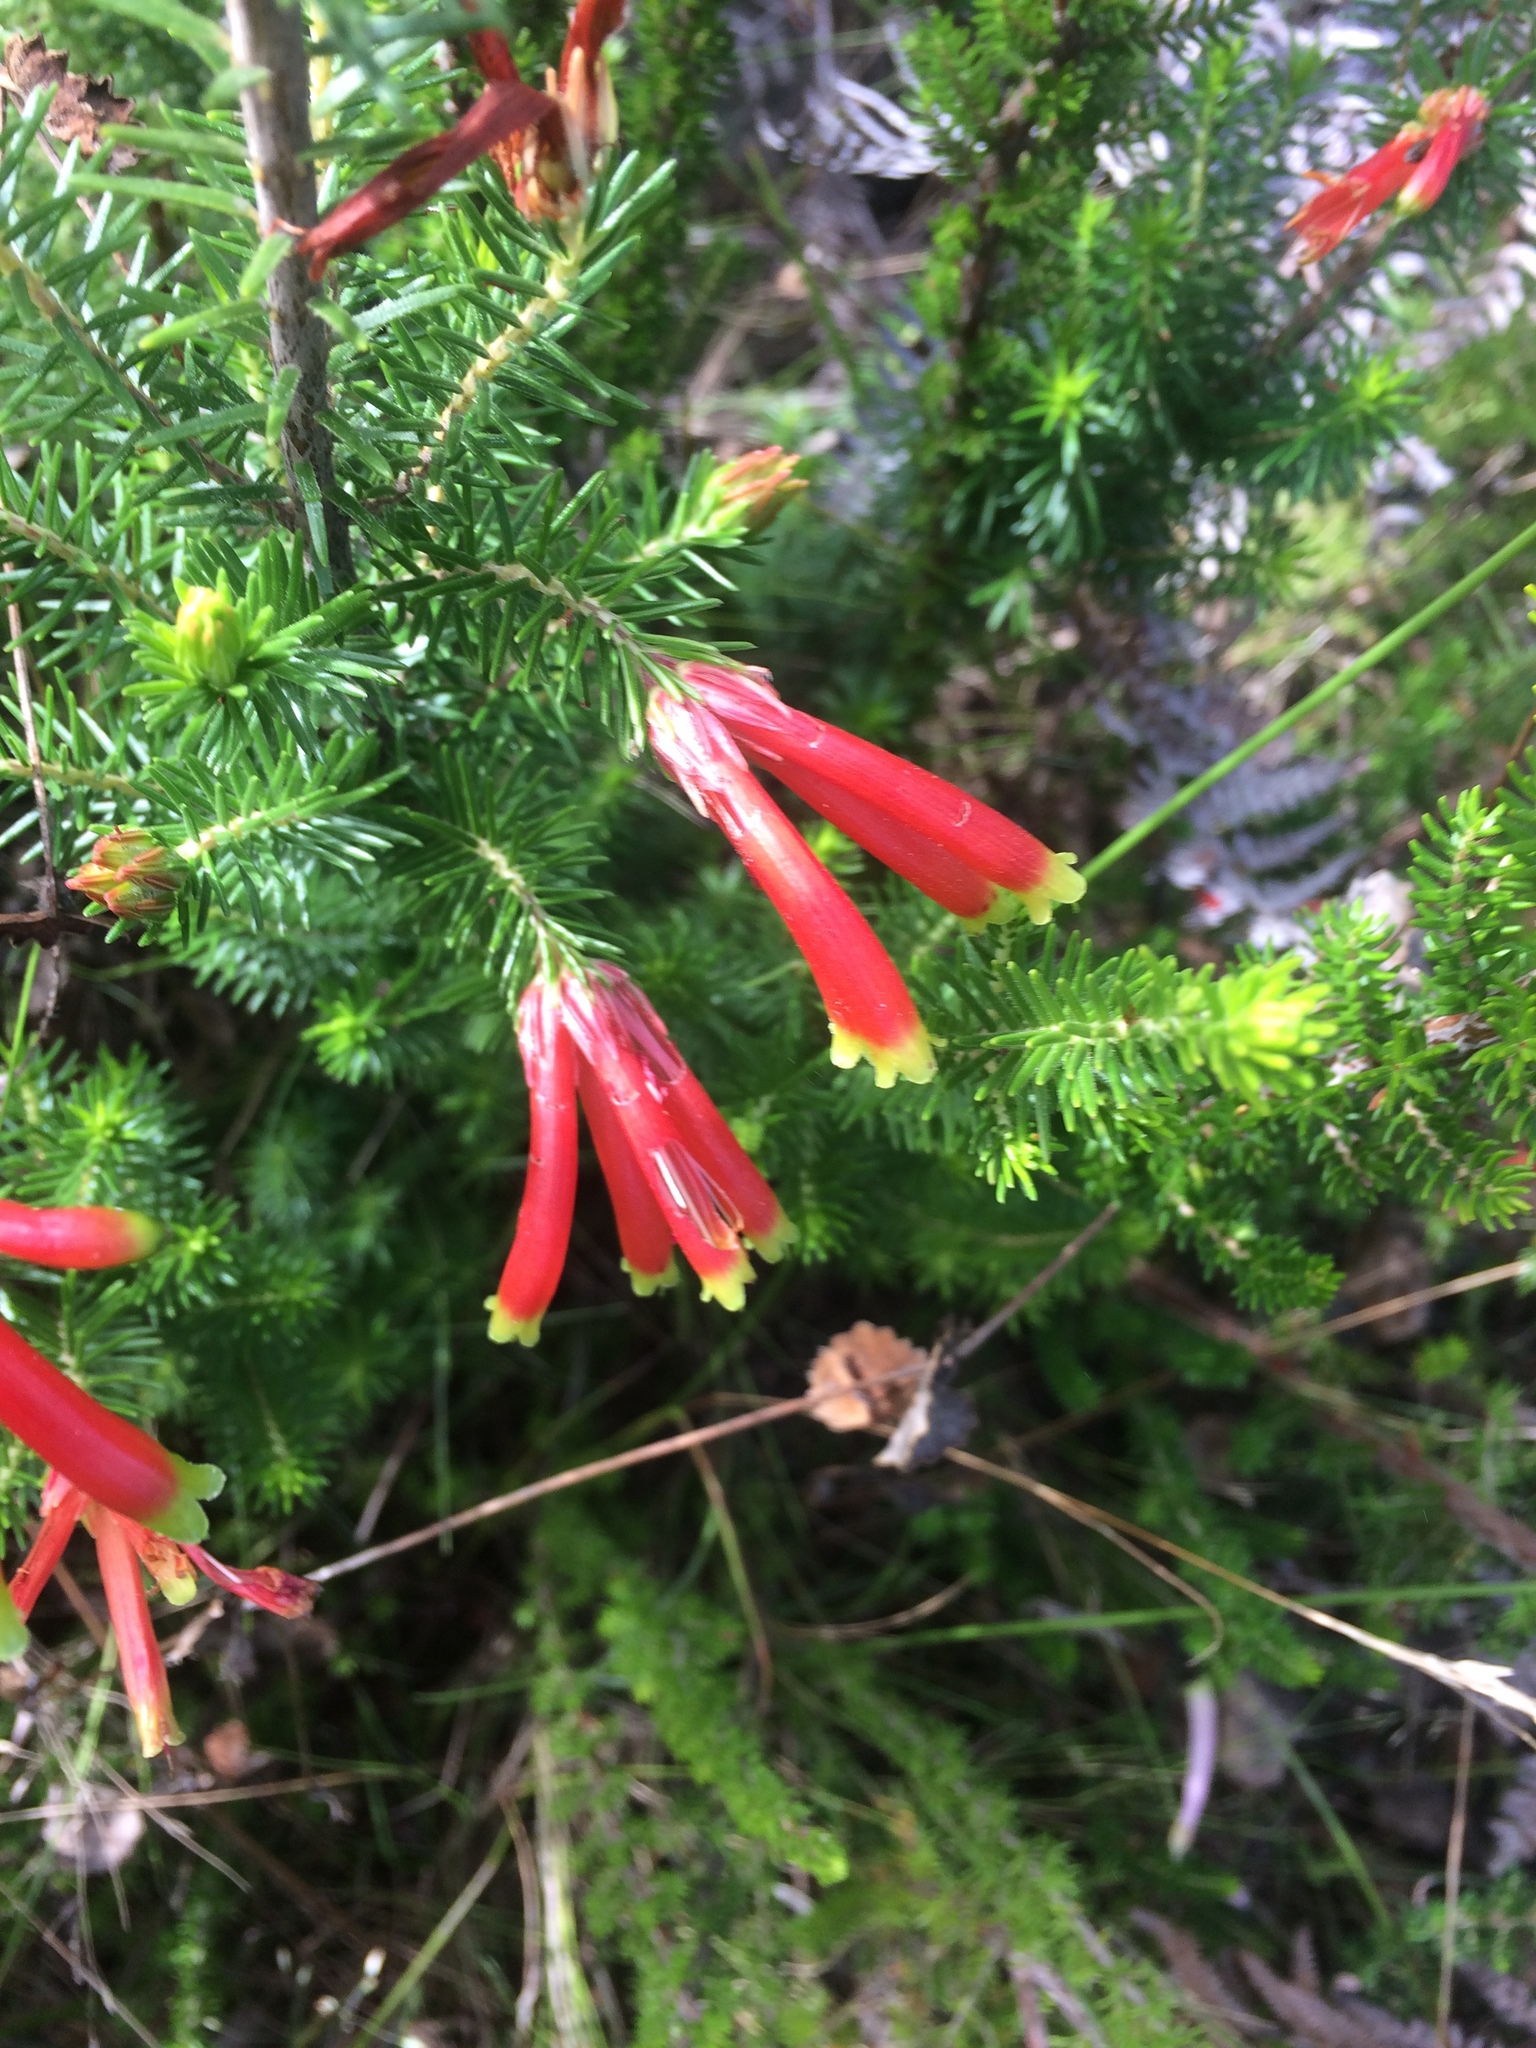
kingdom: Plantae
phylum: Tracheophyta
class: Magnoliopsida
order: Ericales
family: Ericaceae
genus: Erica
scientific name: Erica unicolor
